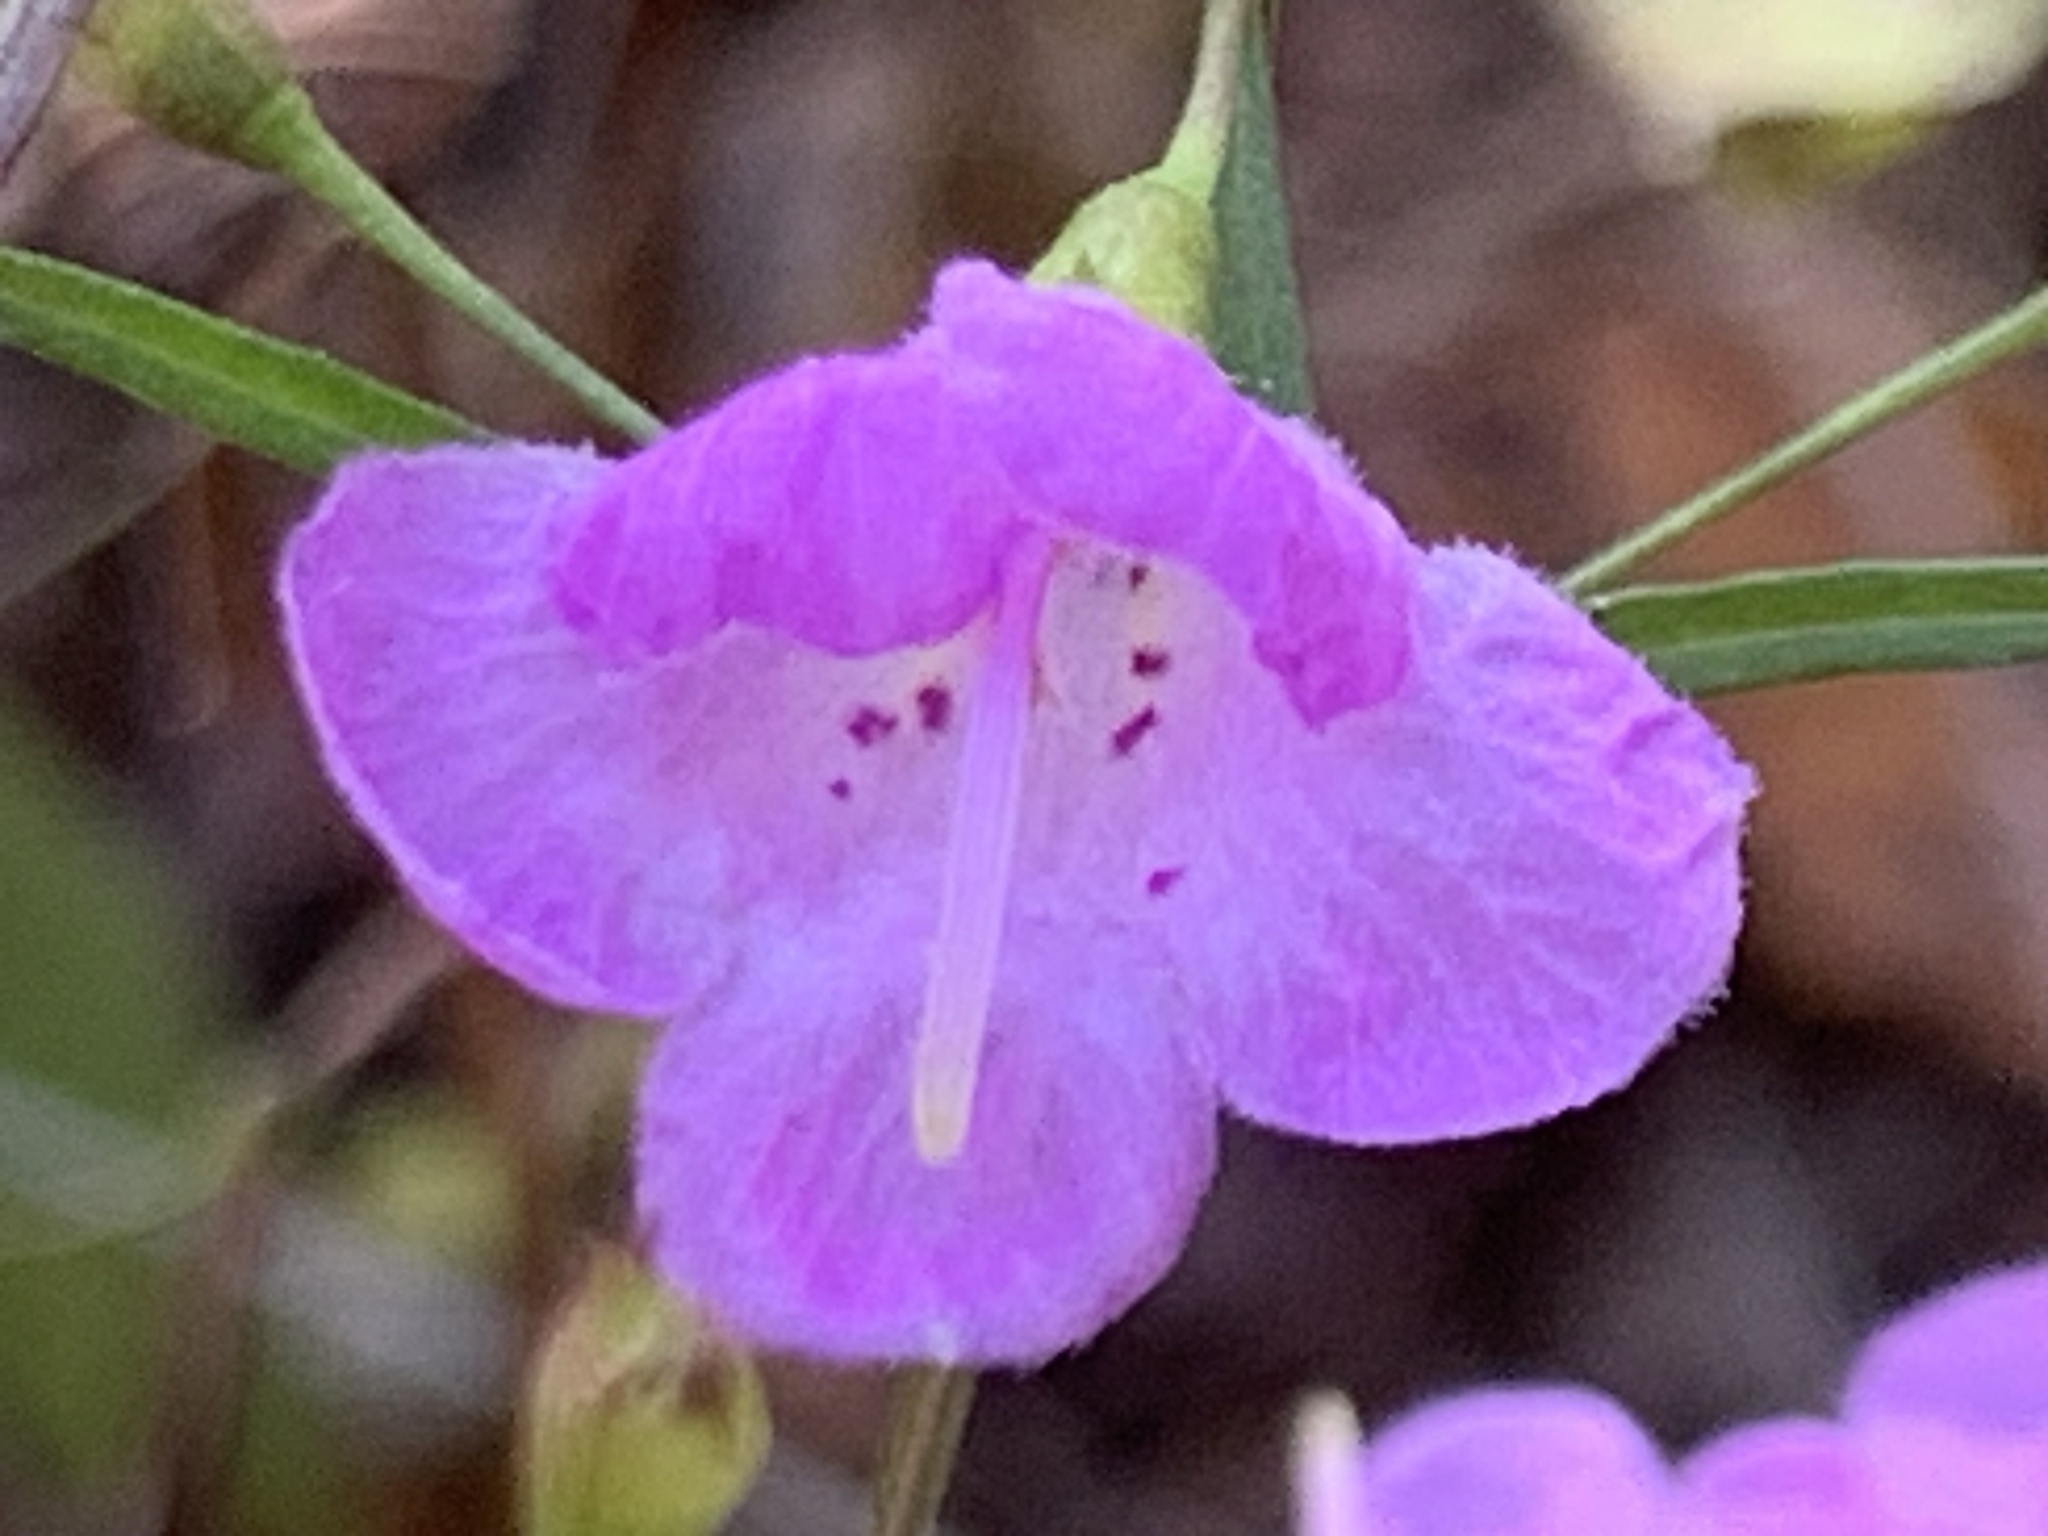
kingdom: Plantae
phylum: Tracheophyta
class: Magnoliopsida
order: Lamiales
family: Orobanchaceae
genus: Agalinis
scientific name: Agalinis tenuifolia
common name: Slender agalinis
